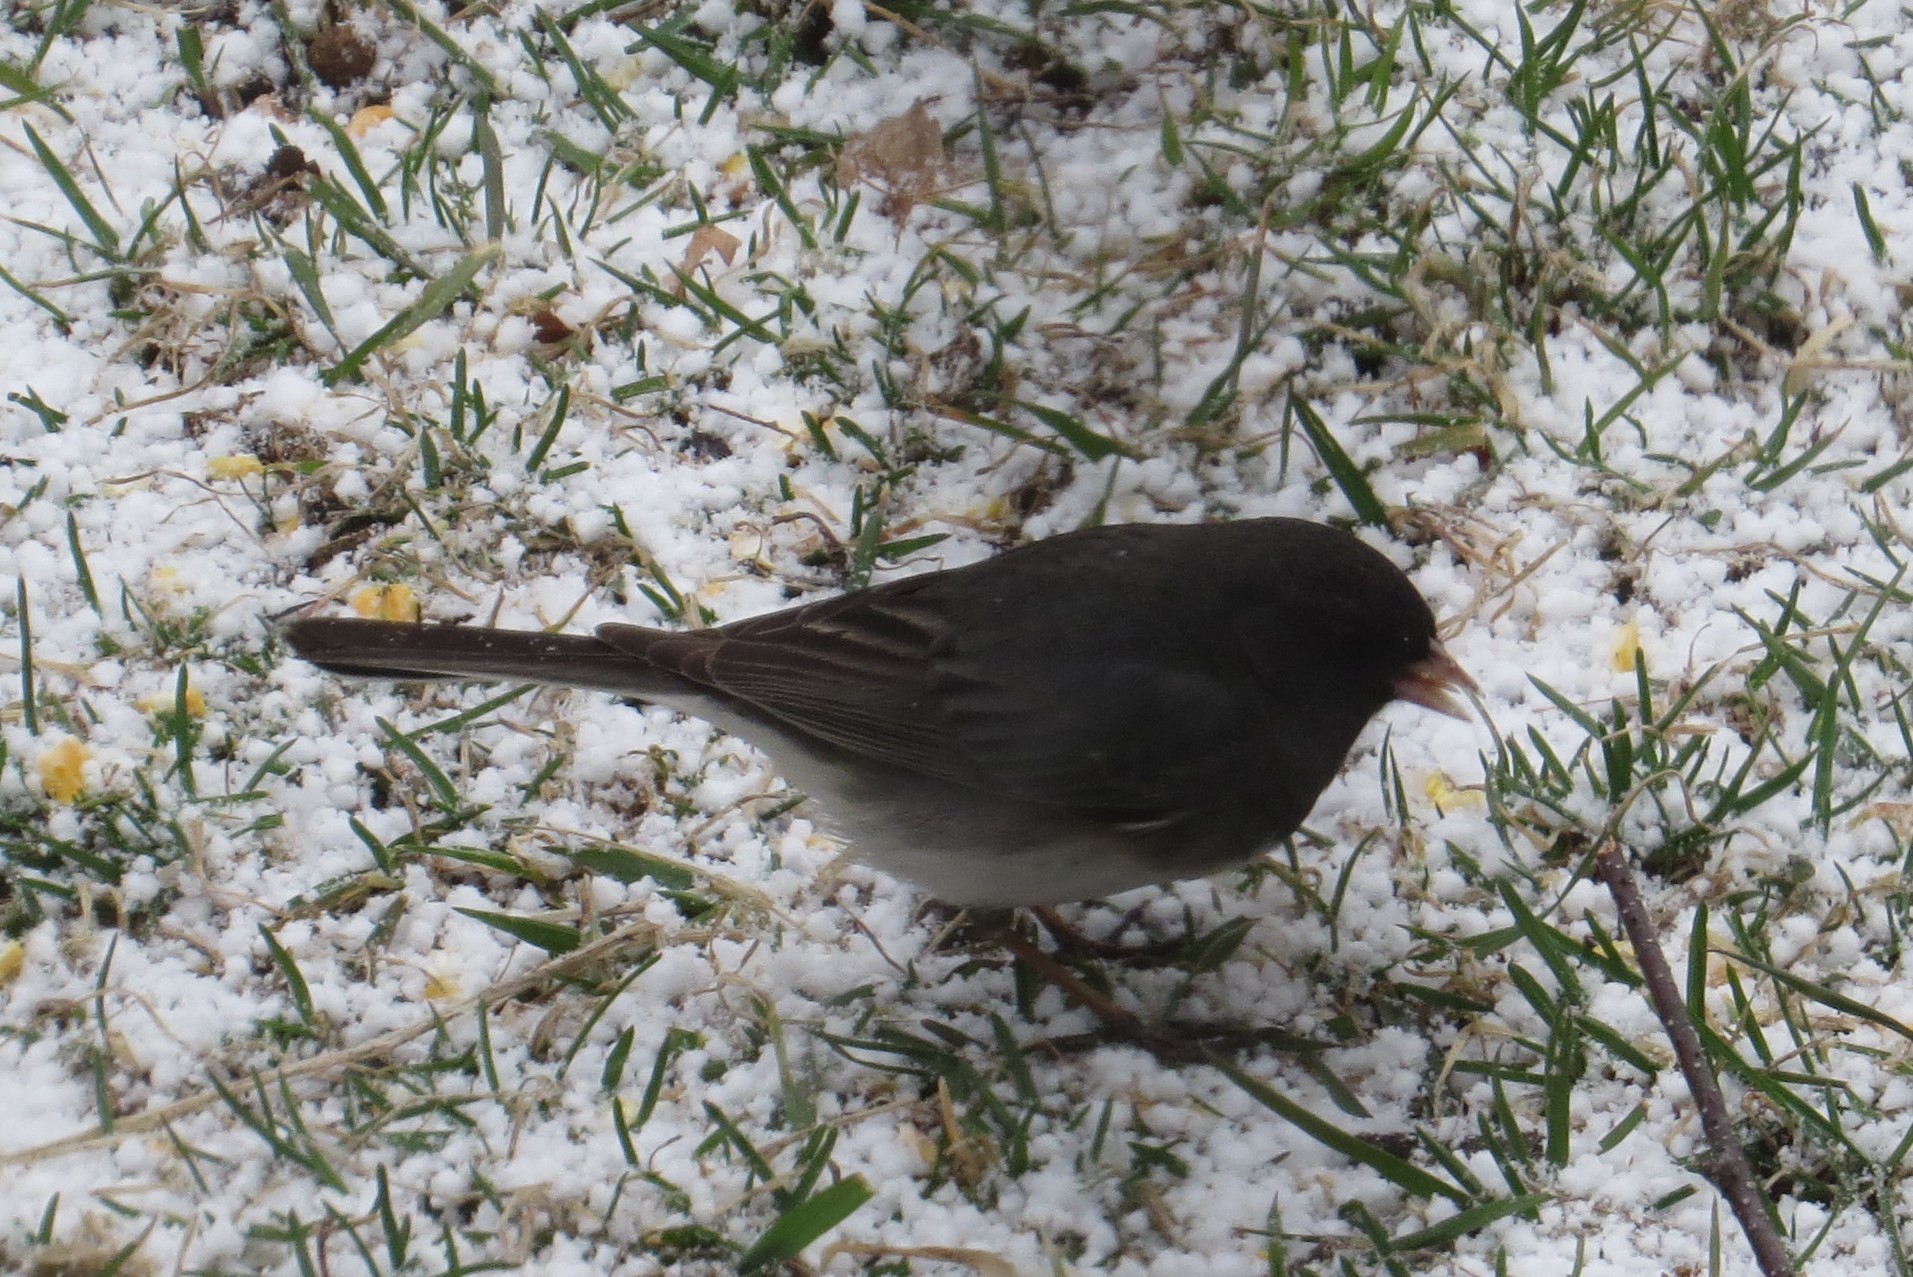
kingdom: Animalia
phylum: Chordata
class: Aves
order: Passeriformes
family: Passerellidae
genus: Junco
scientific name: Junco hyemalis
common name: Dark-eyed junco
